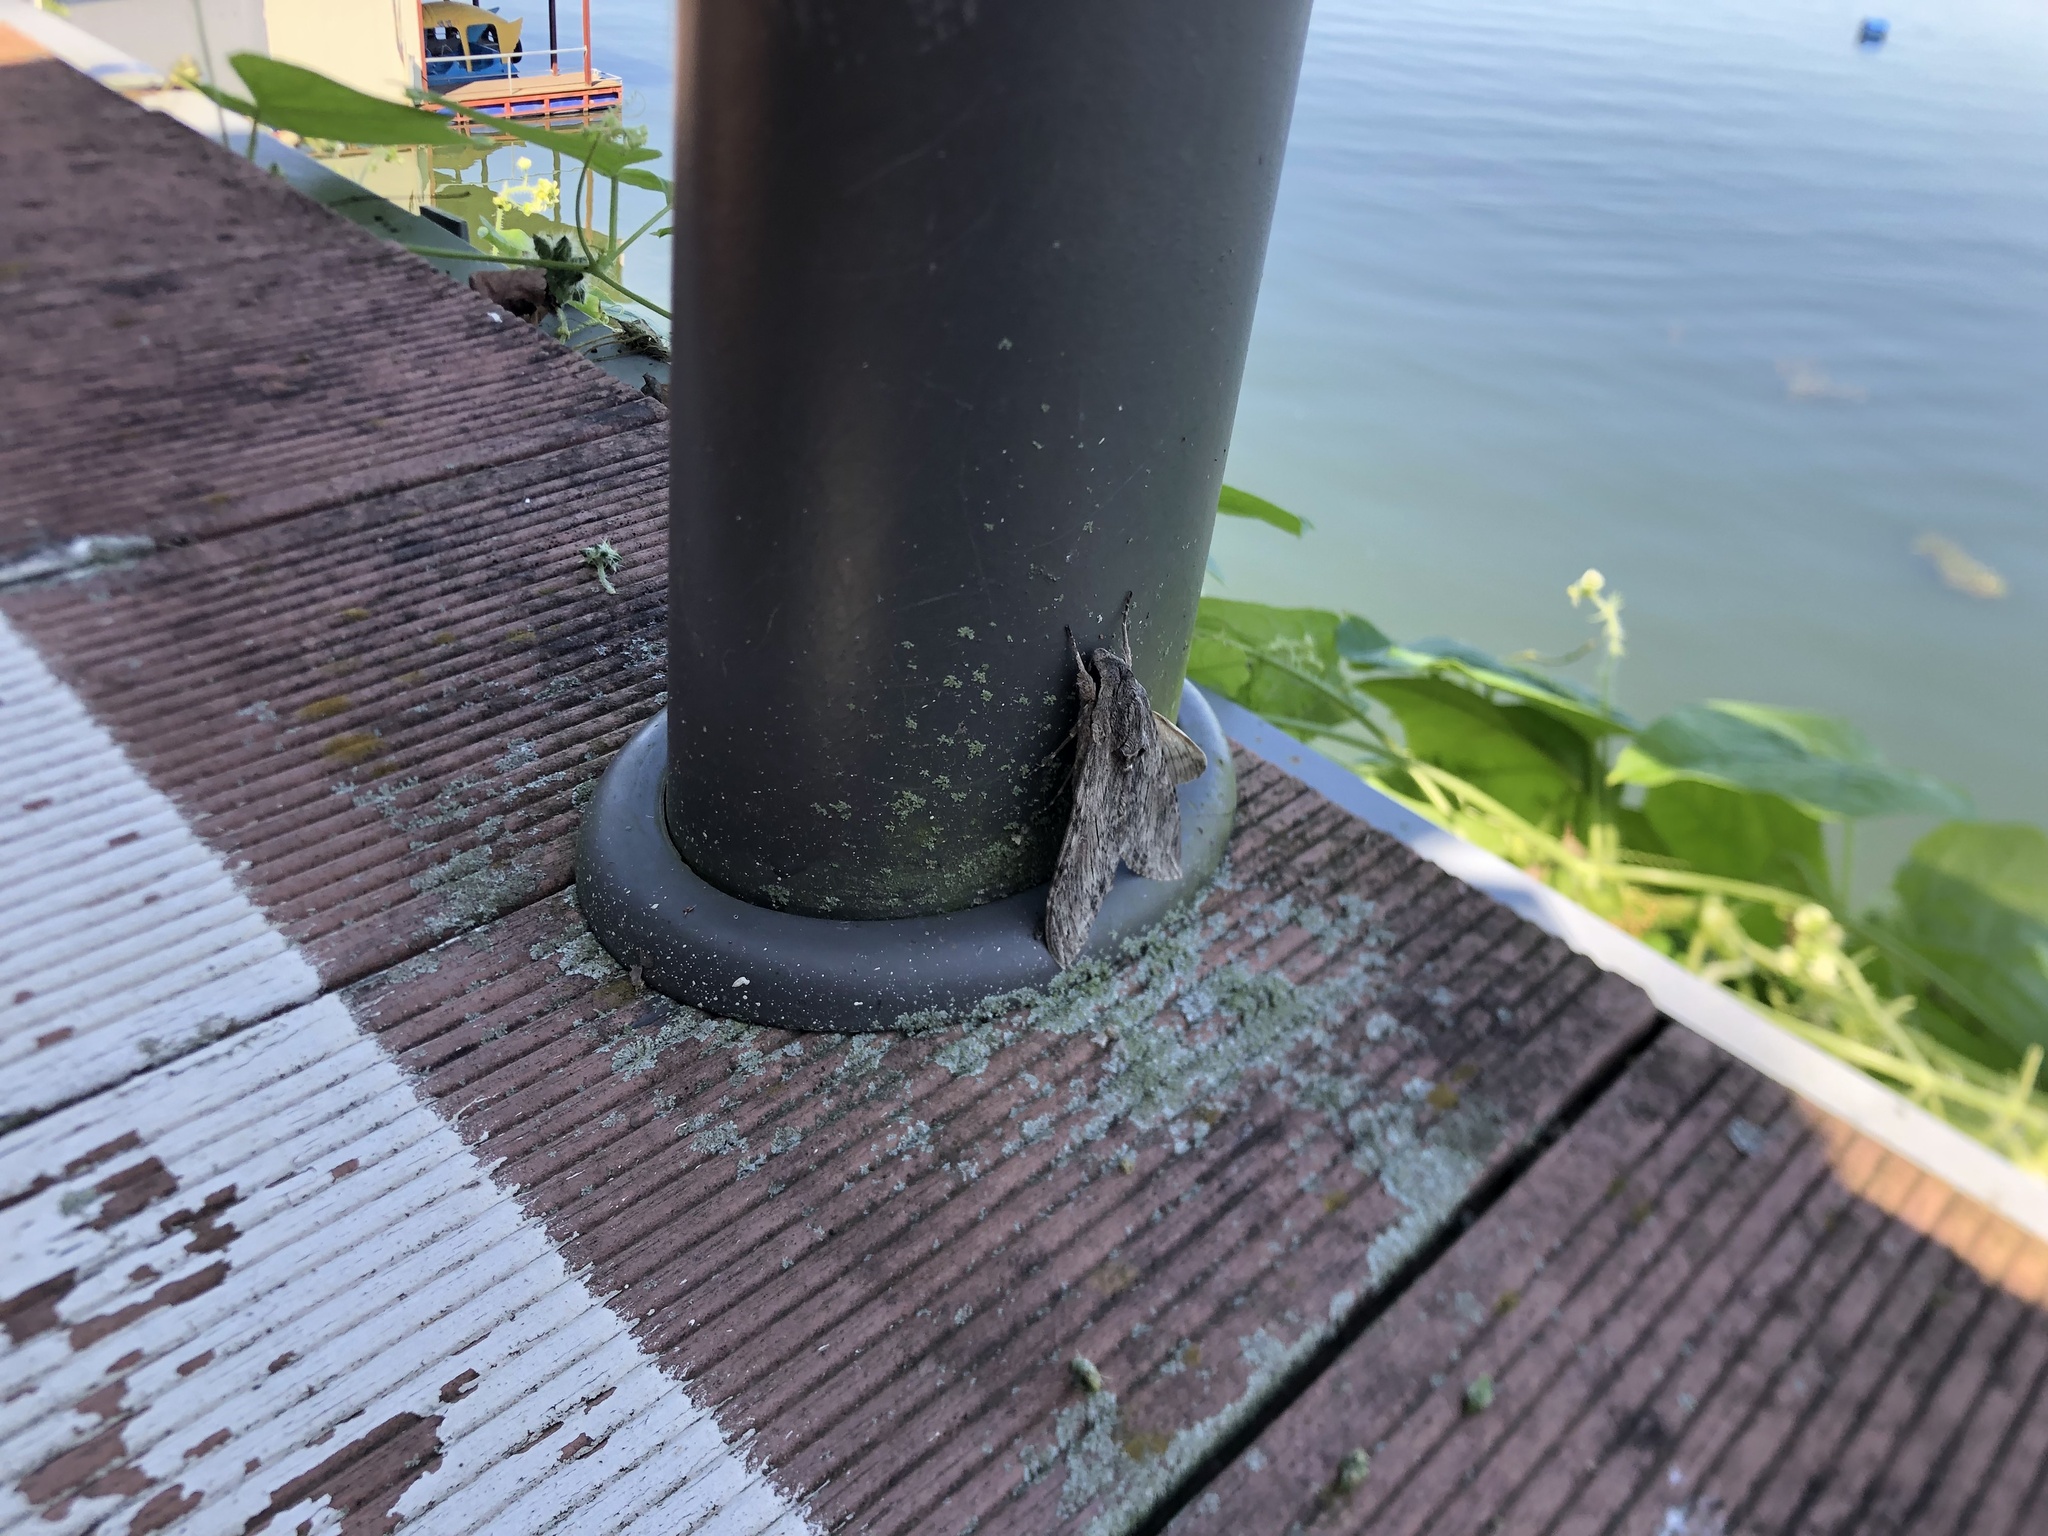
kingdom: Animalia
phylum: Arthropoda
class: Insecta
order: Lepidoptera
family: Sphingidae
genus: Agrius
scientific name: Agrius convolvuli
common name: Convolvulus hawkmoth
